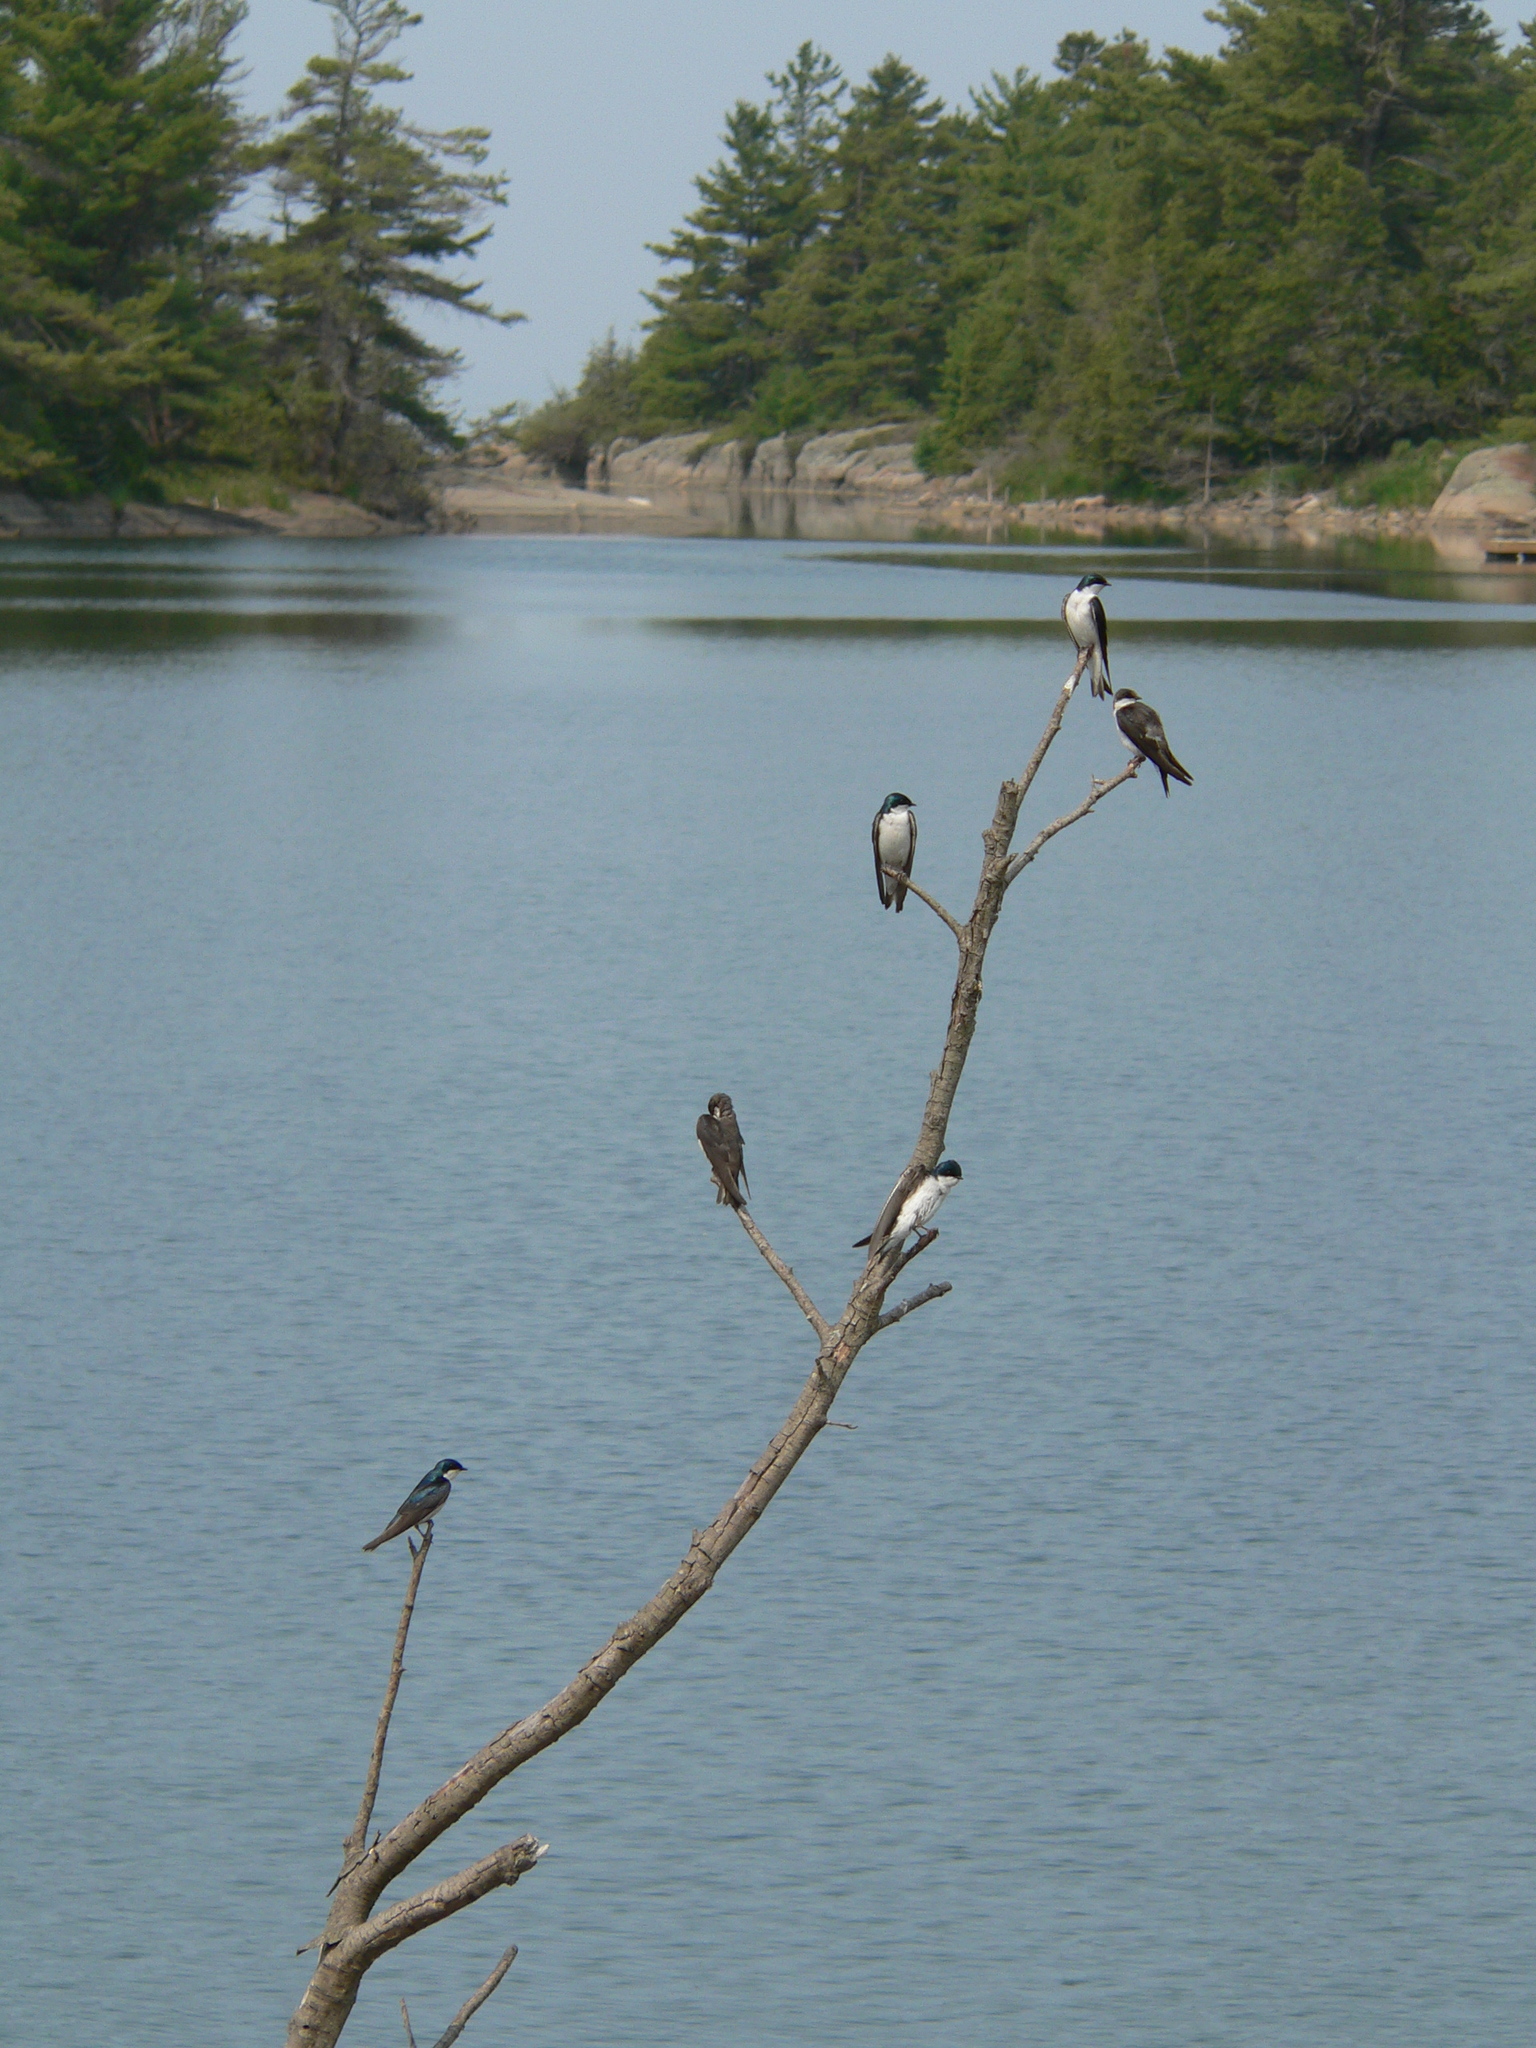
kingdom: Animalia
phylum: Chordata
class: Aves
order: Passeriformes
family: Hirundinidae
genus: Tachycineta
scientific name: Tachycineta bicolor
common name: Tree swallow
